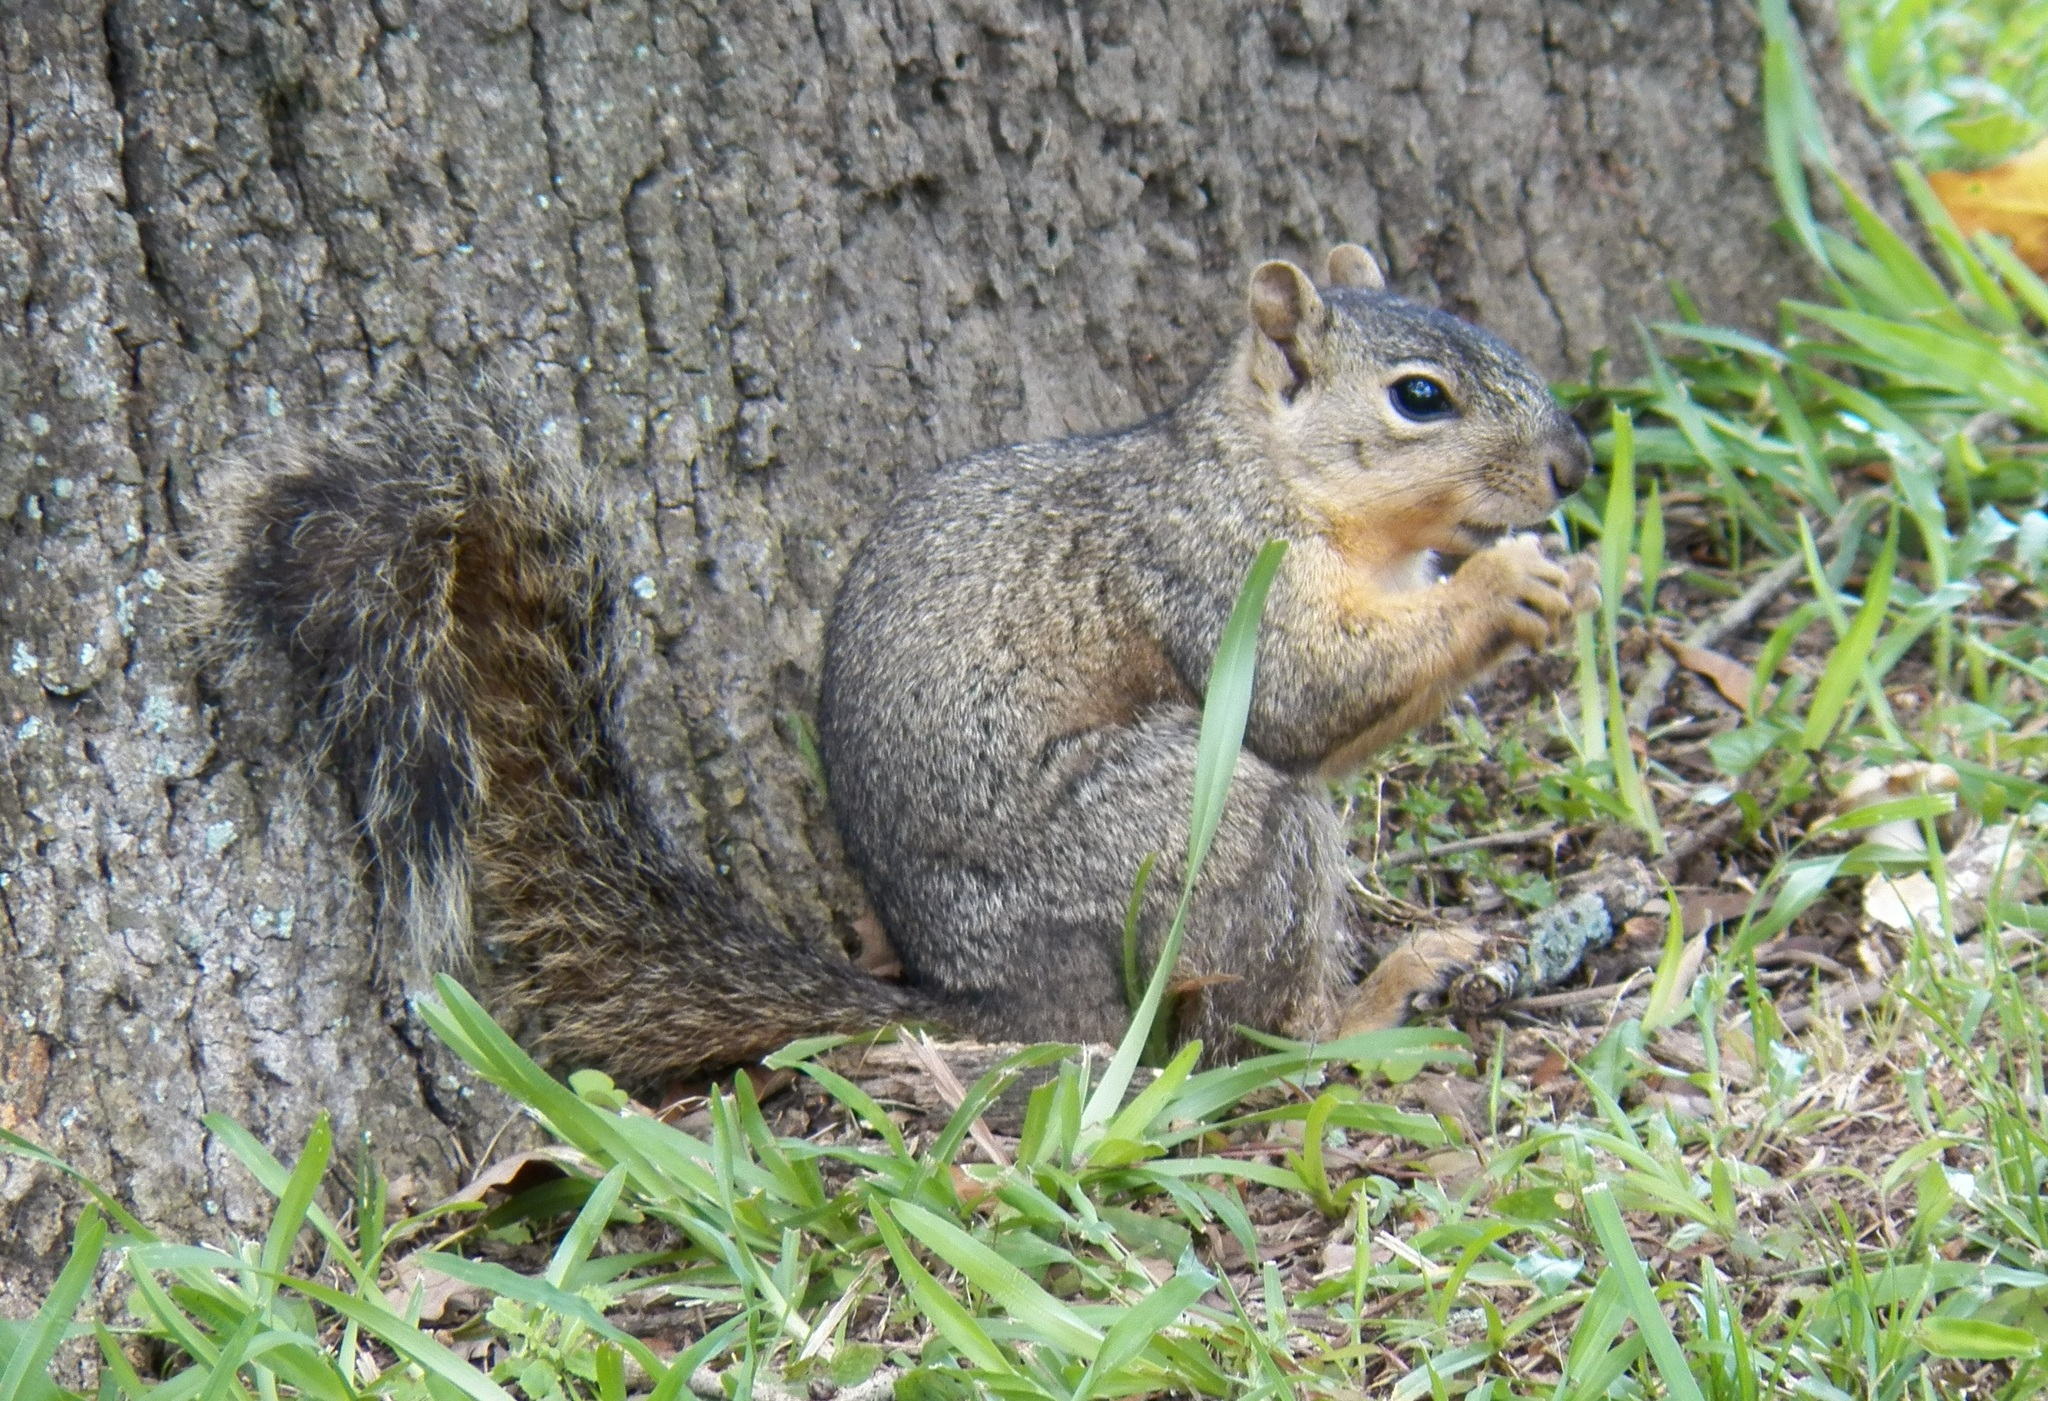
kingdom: Animalia
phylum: Chordata
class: Mammalia
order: Rodentia
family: Sciuridae
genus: Sciurus
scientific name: Sciurus niger
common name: Fox squirrel
